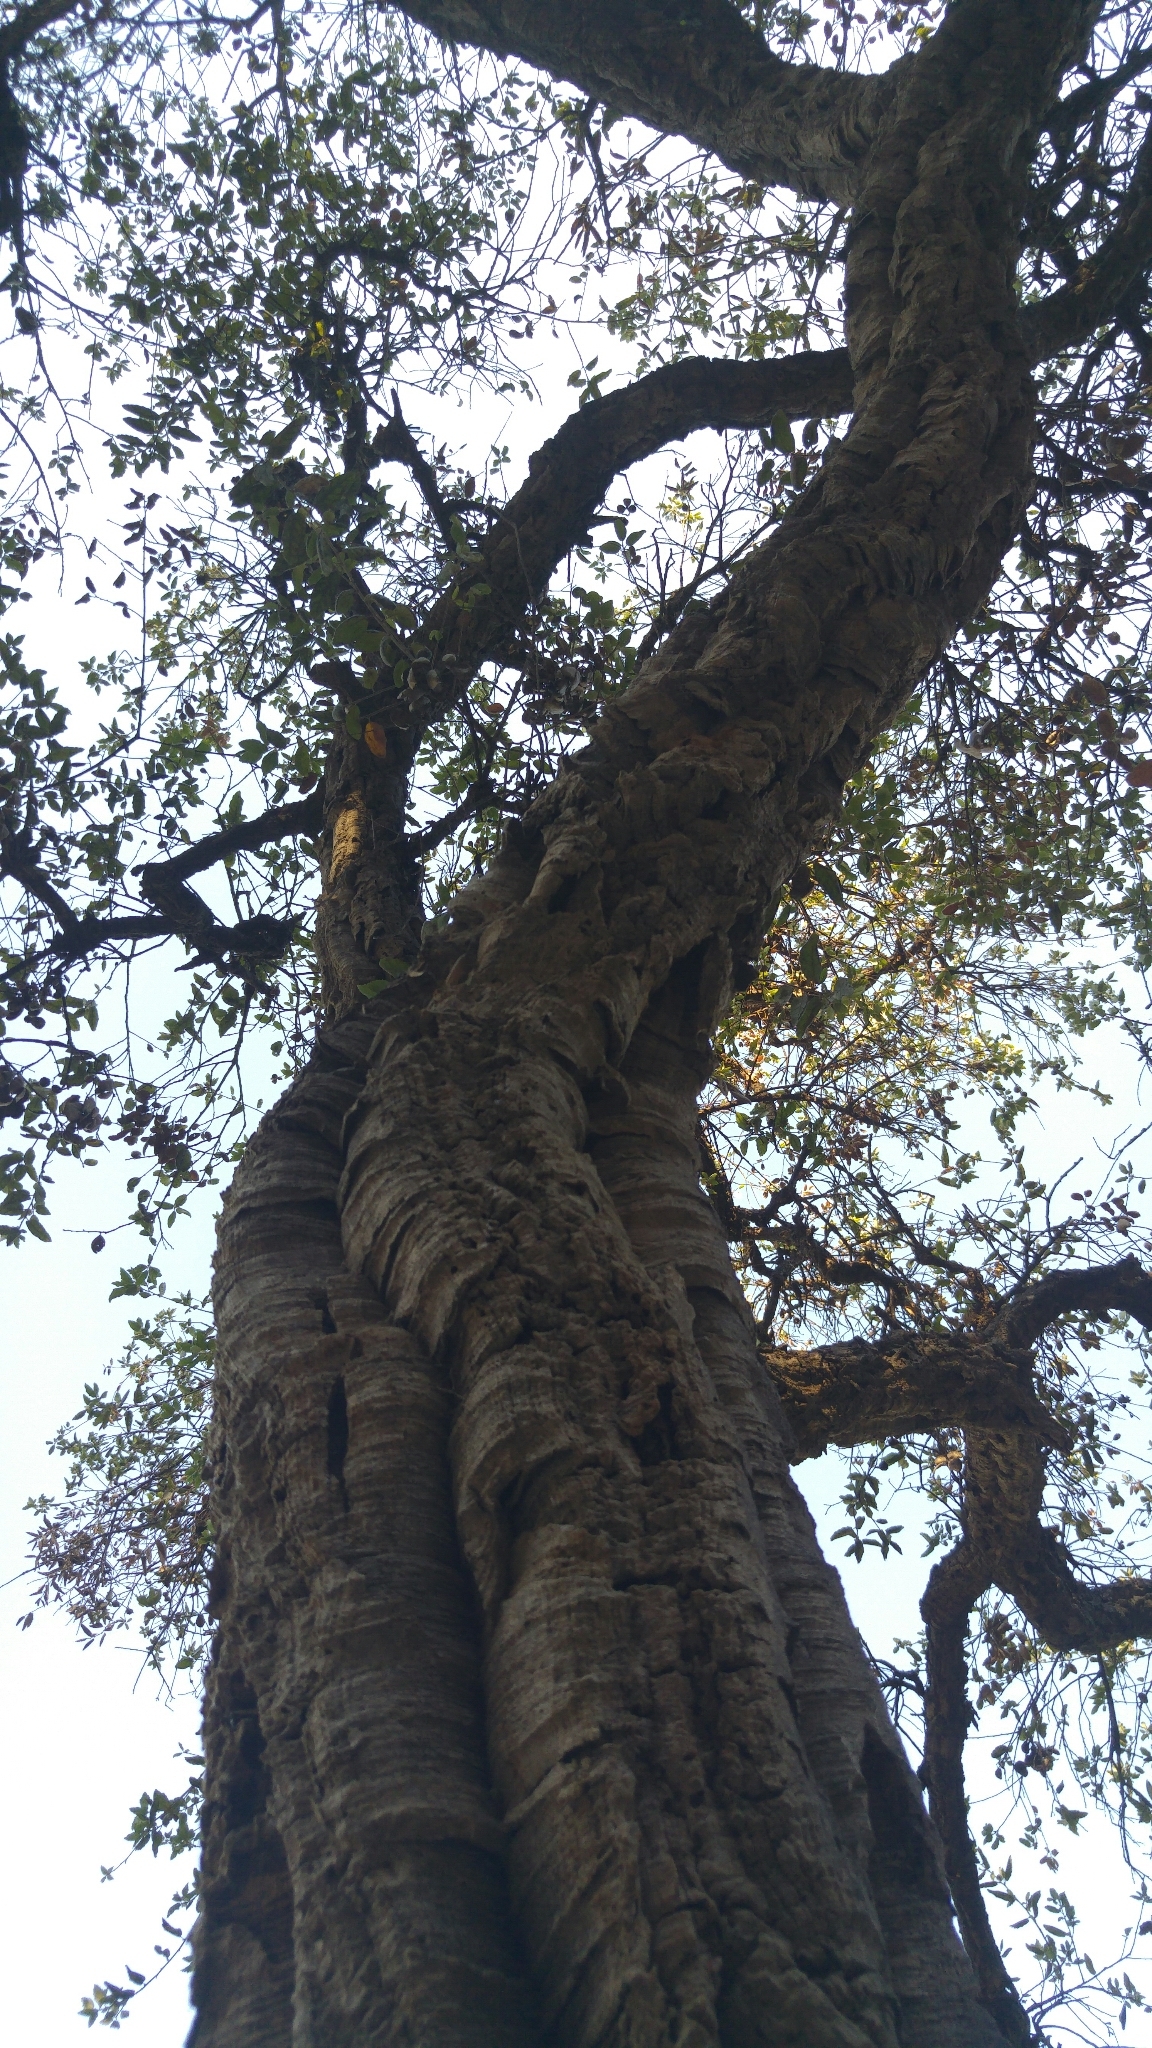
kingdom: Plantae
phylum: Tracheophyta
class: Magnoliopsida
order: Fagales
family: Fagaceae
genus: Quercus
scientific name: Quercus suber
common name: Cork oak
